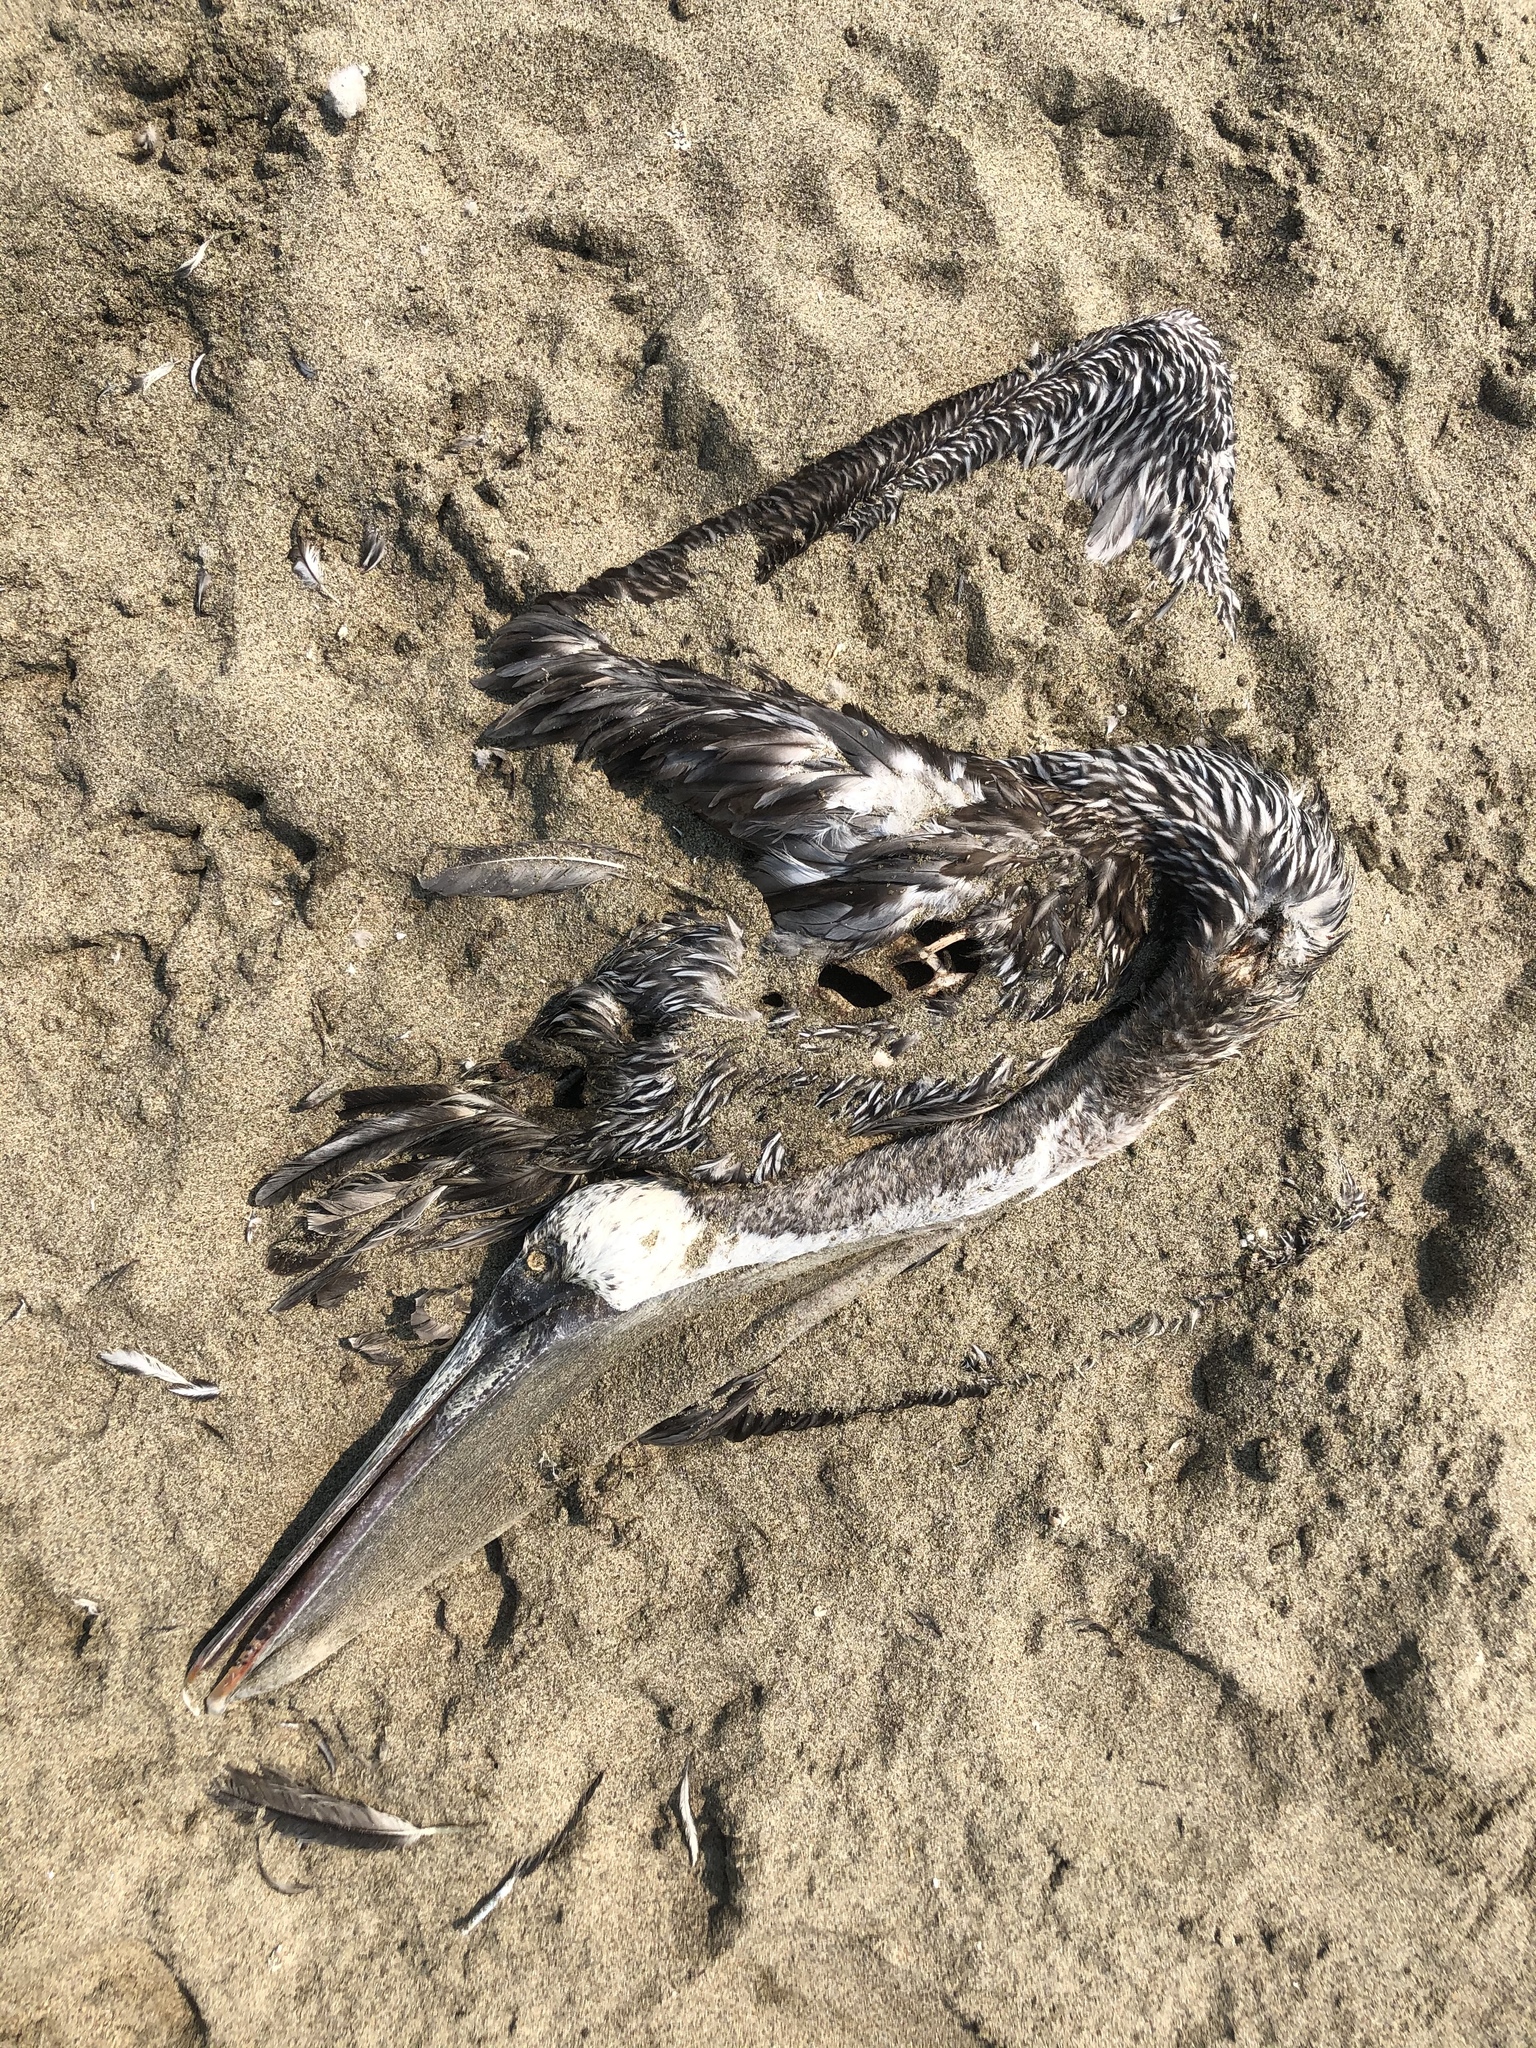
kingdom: Animalia
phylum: Chordata
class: Aves
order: Pelecaniformes
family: Pelecanidae
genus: Pelecanus
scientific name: Pelecanus occidentalis
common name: Brown pelican
